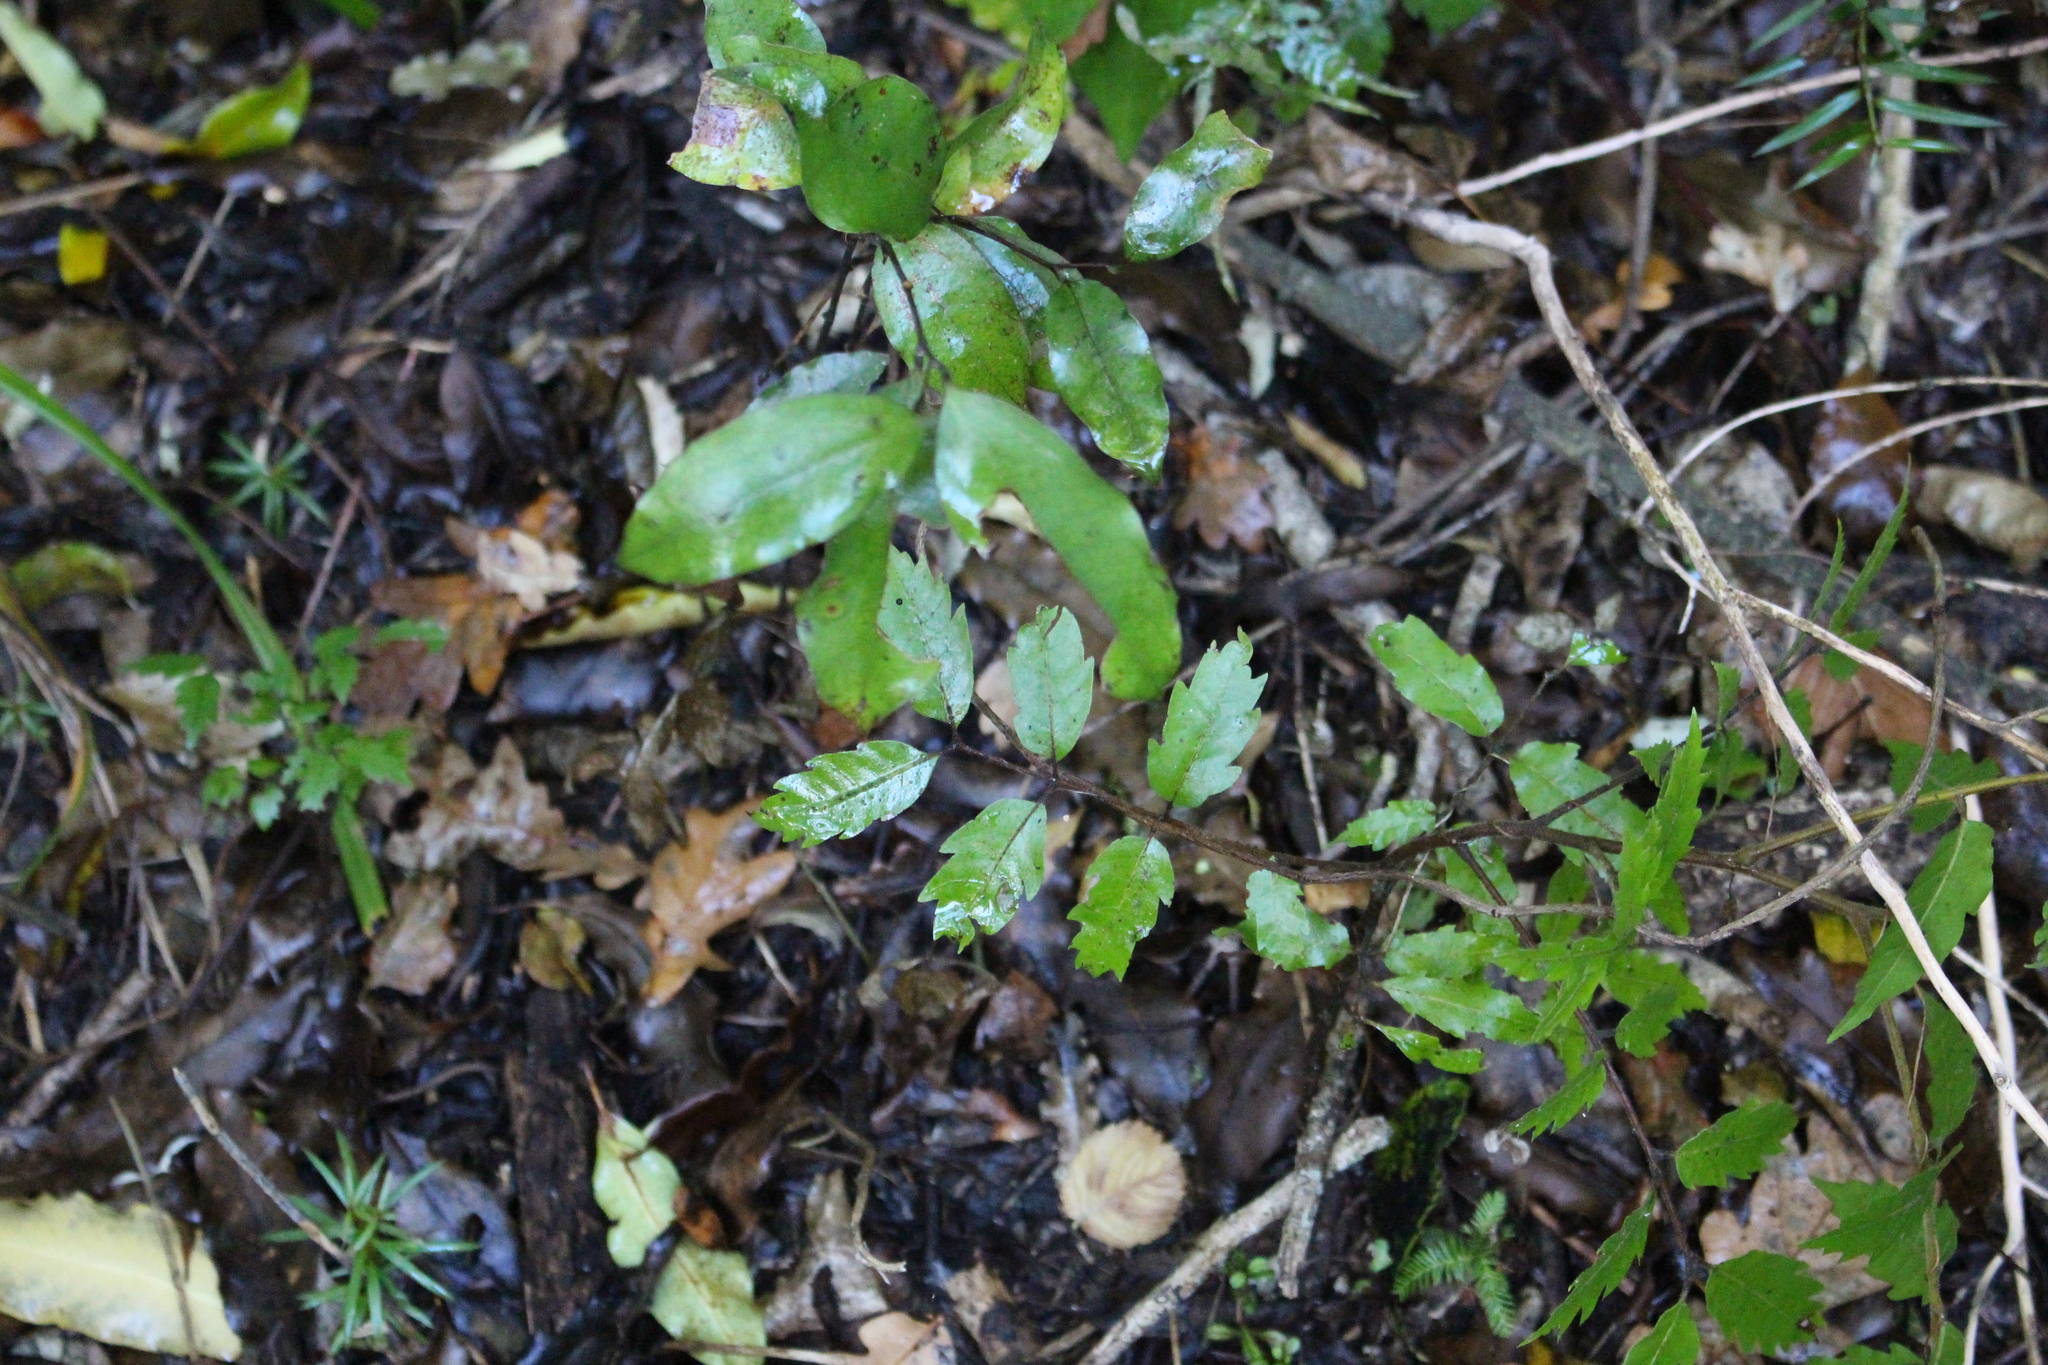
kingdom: Plantae
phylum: Tracheophyta
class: Magnoliopsida
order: Sapindales
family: Sapindaceae
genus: Alectryon
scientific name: Alectryon excelsus
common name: Three kings titoki
